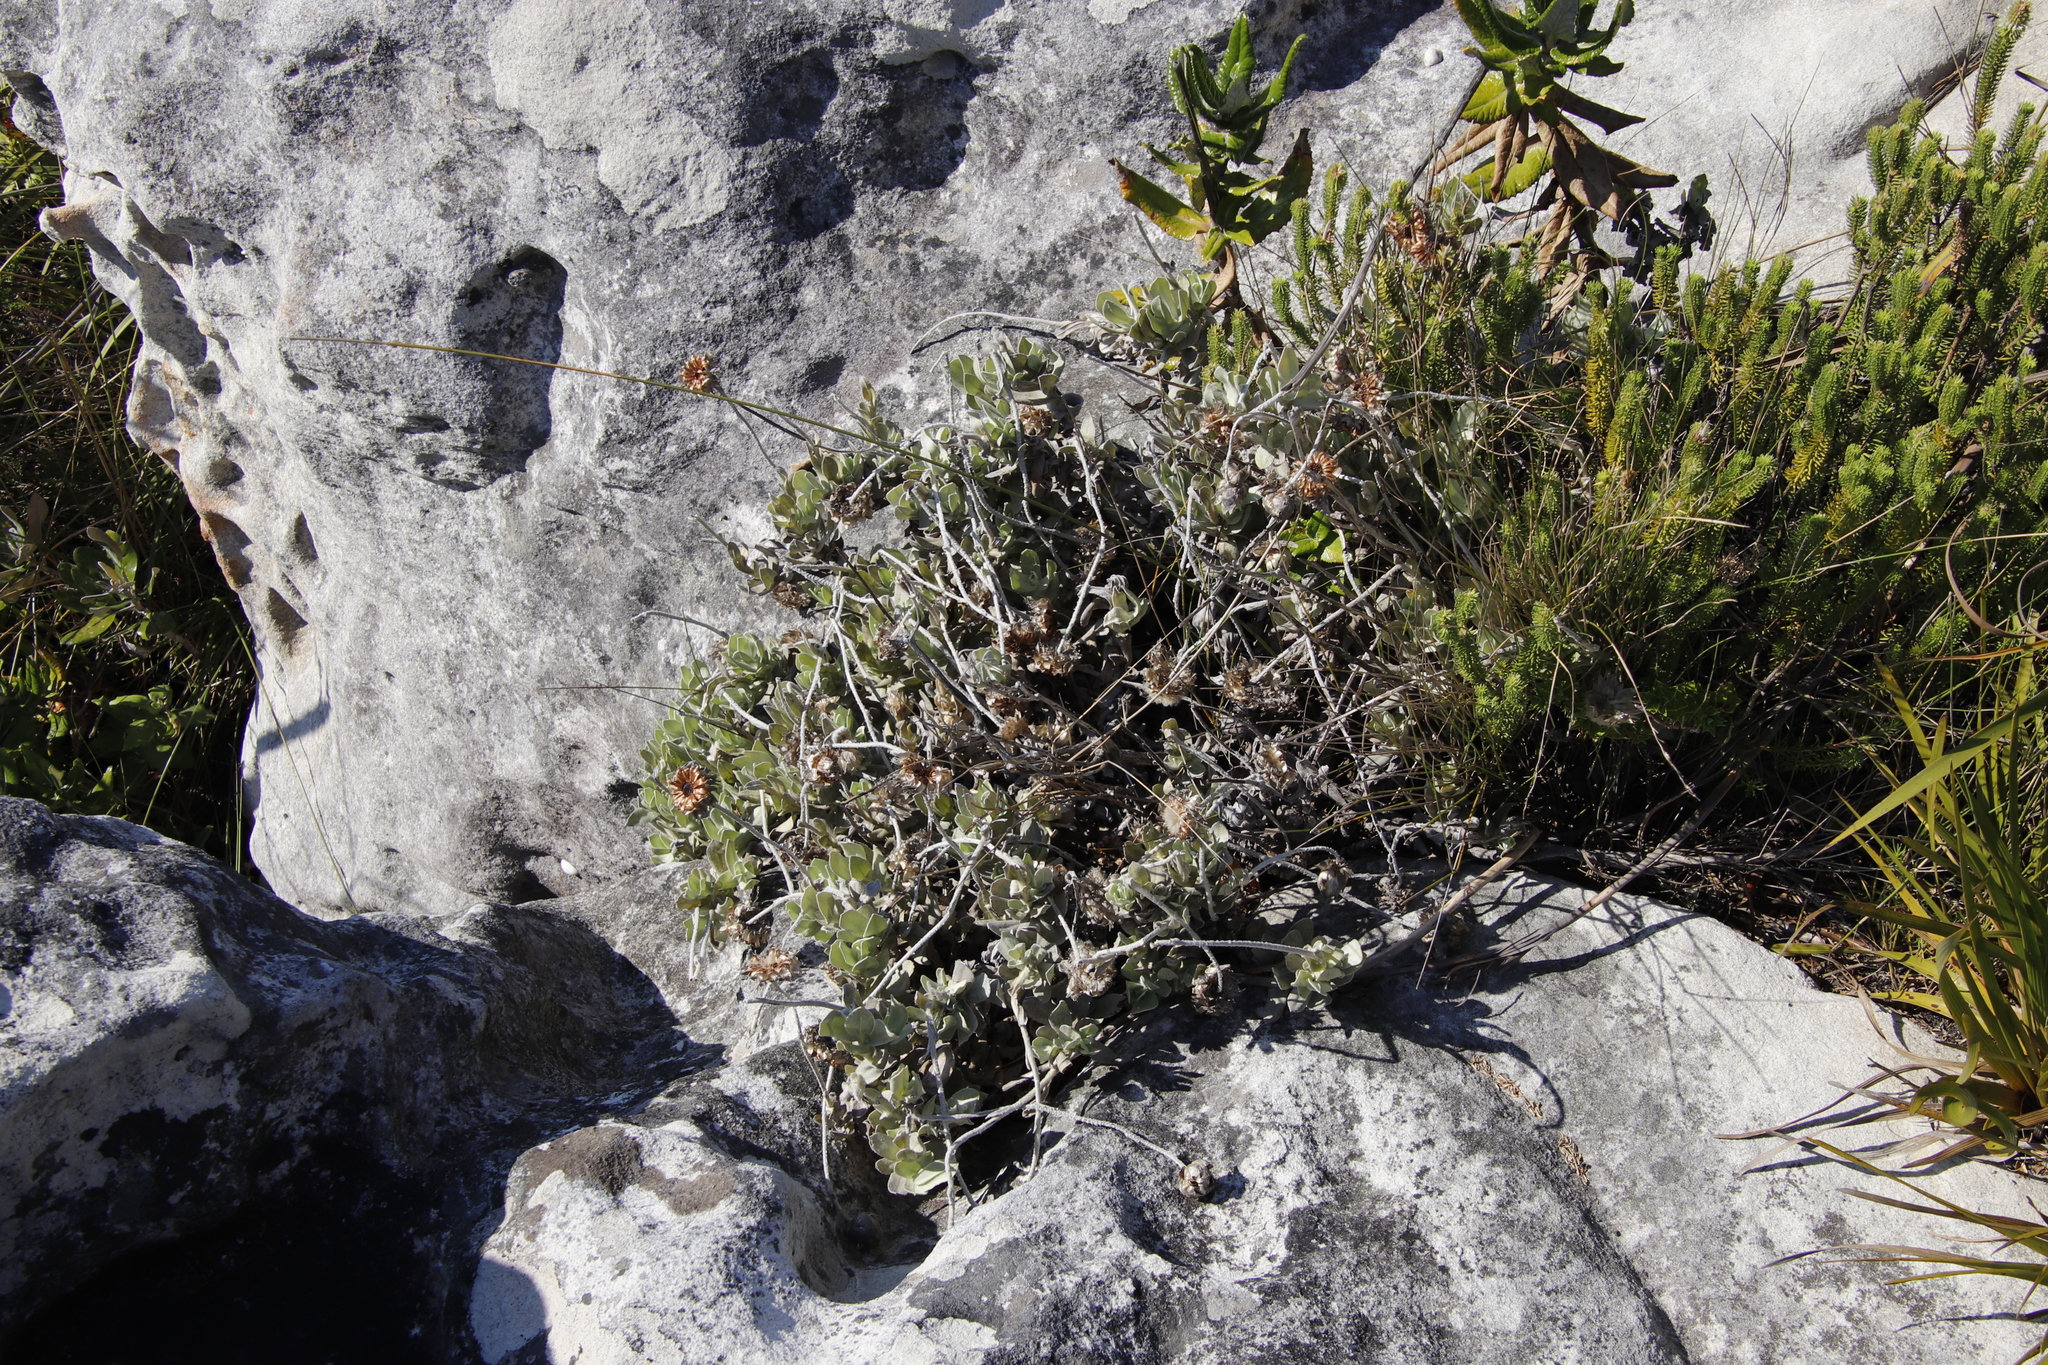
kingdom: Plantae
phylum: Tracheophyta
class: Magnoliopsida
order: Asterales
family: Asteraceae
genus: Syncarpha
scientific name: Syncarpha speciosissima
